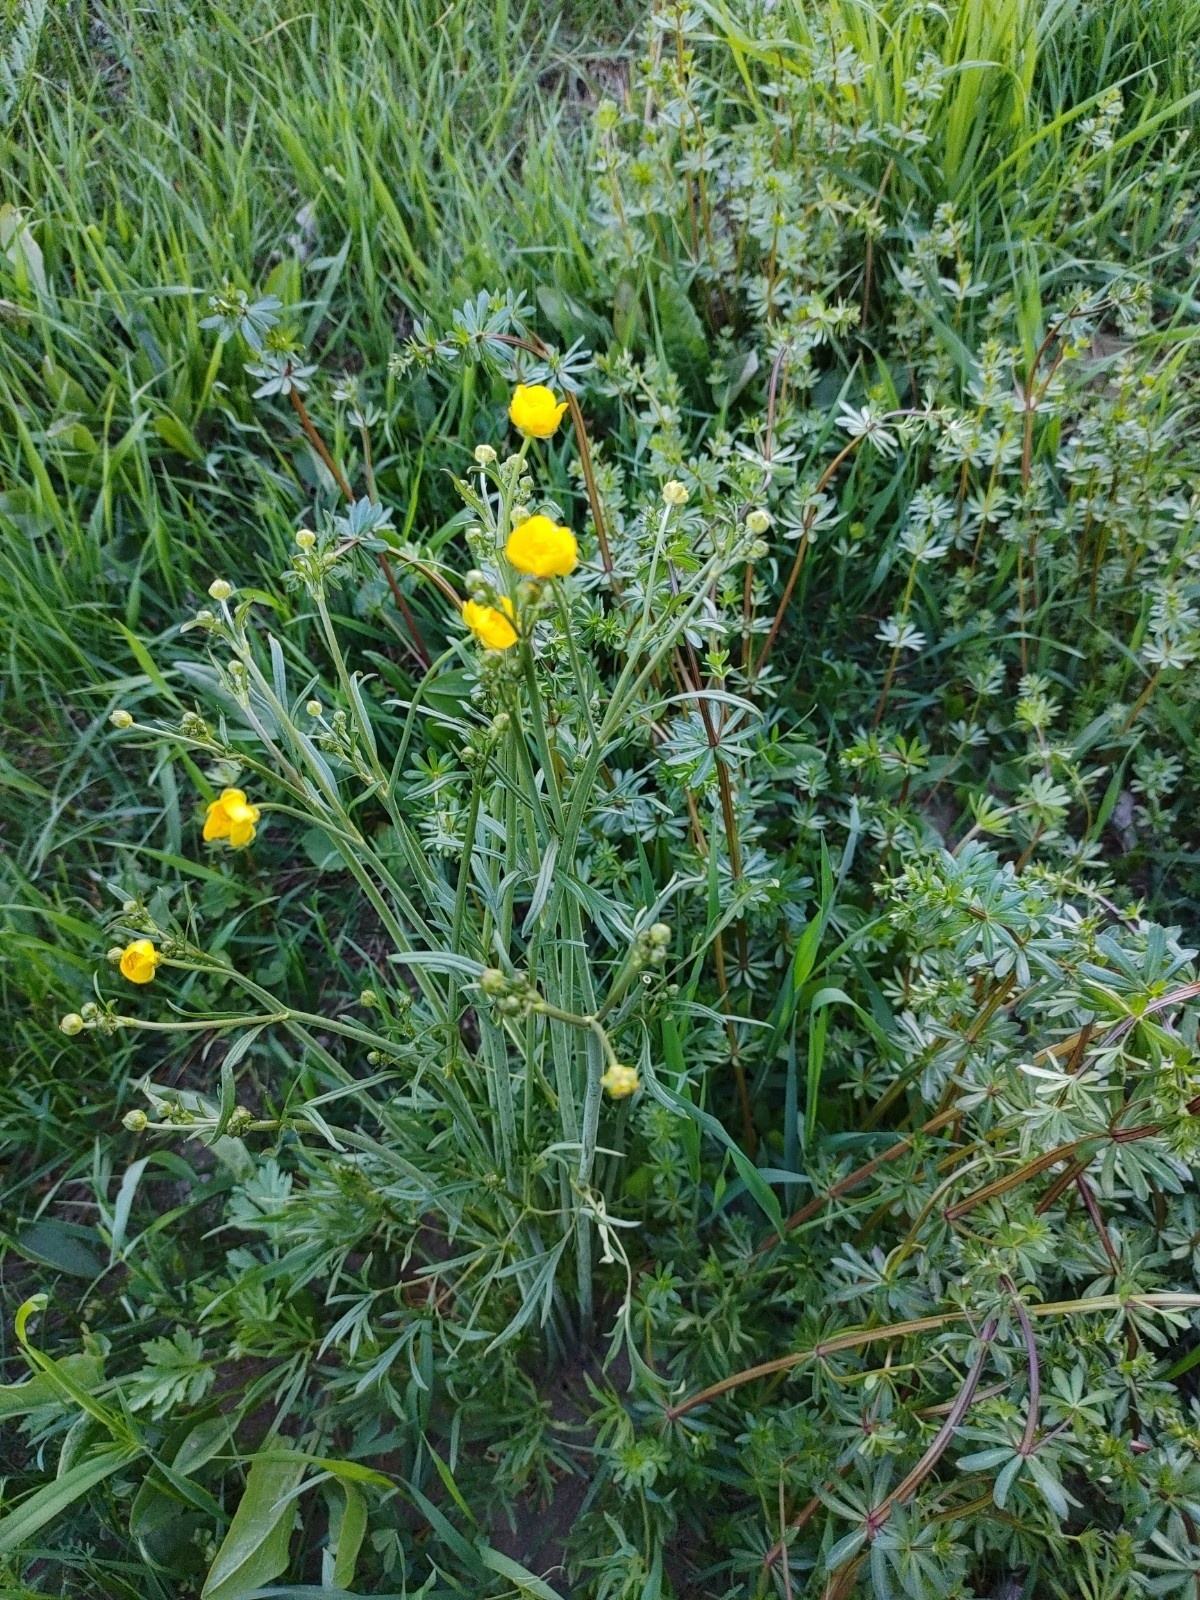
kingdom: Plantae
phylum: Tracheophyta
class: Magnoliopsida
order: Ranunculales
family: Ranunculaceae
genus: Ranunculus
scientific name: Ranunculus acris
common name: Meadow buttercup
